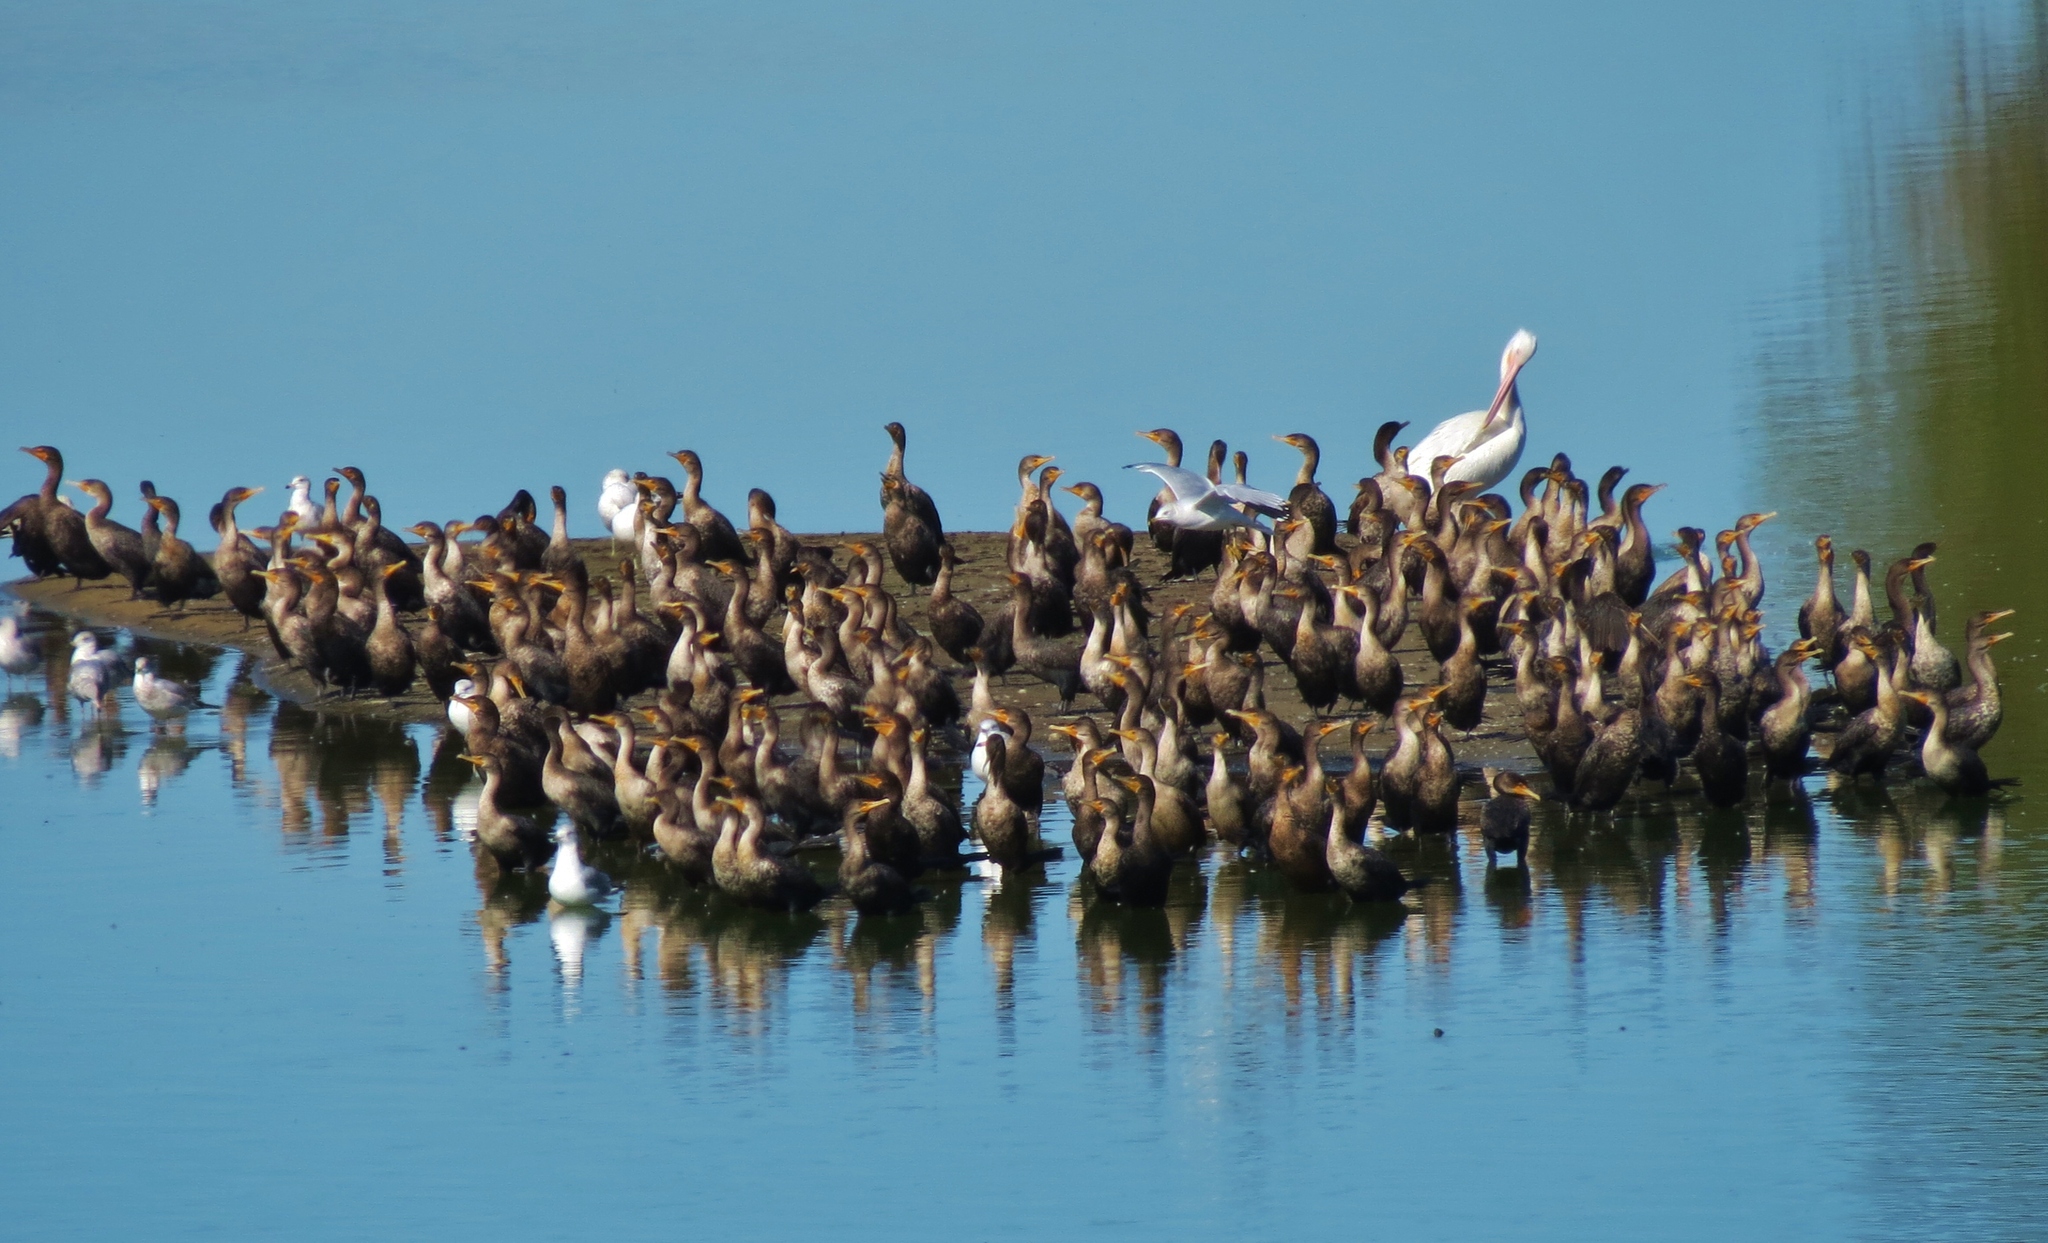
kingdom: Animalia
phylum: Chordata
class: Aves
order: Suliformes
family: Phalacrocoracidae
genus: Phalacrocorax
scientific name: Phalacrocorax auritus
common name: Double-crested cormorant
